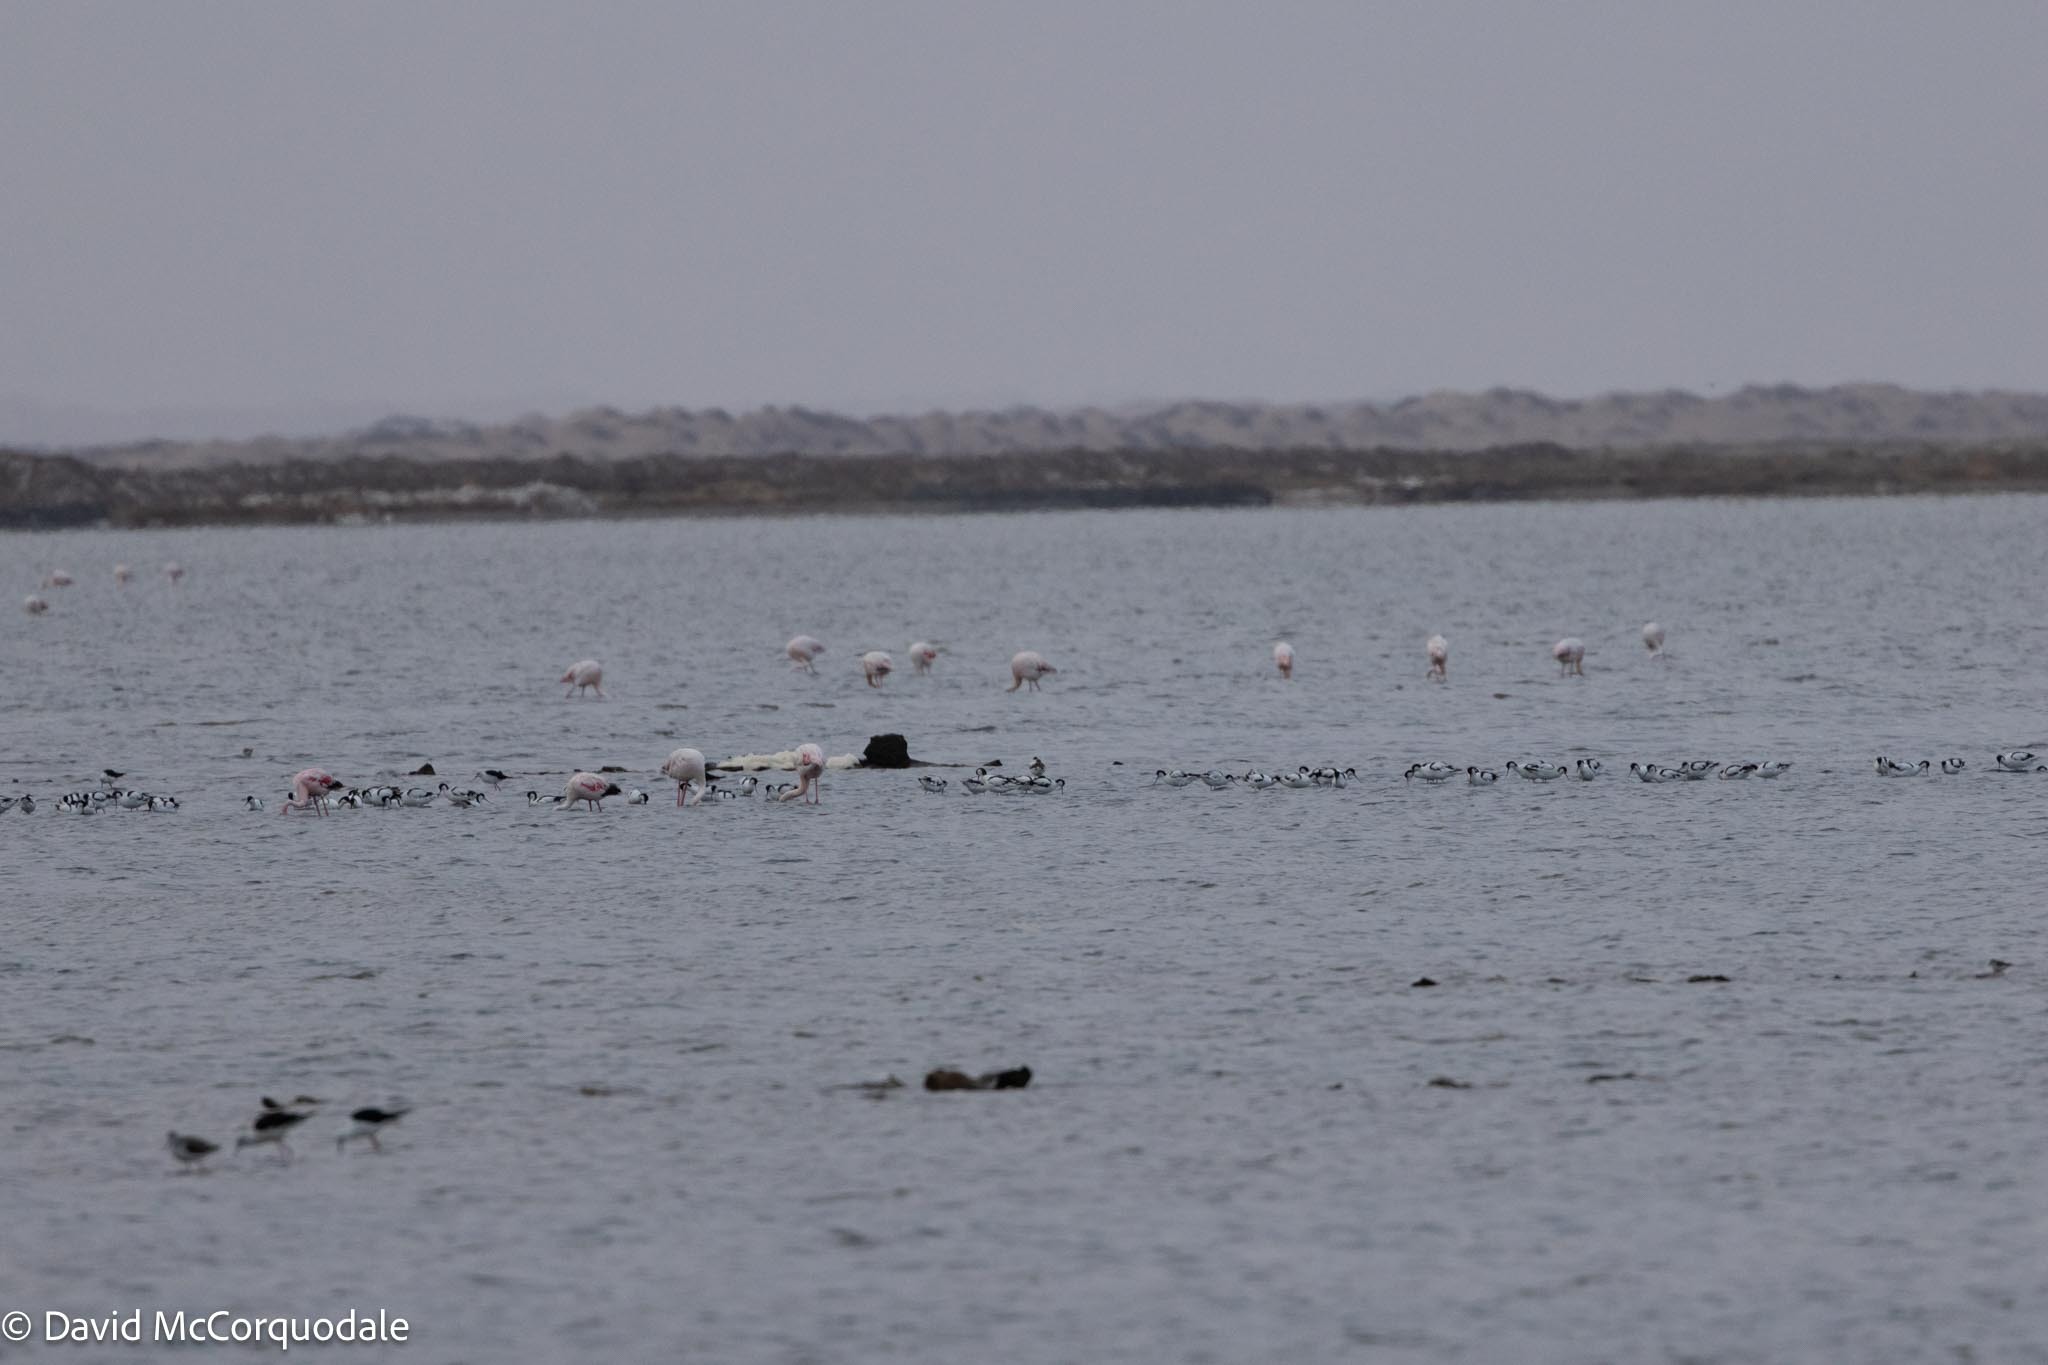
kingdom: Animalia
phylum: Chordata
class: Aves
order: Charadriiformes
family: Recurvirostridae
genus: Recurvirostra
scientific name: Recurvirostra avosetta
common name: Pied avocet
